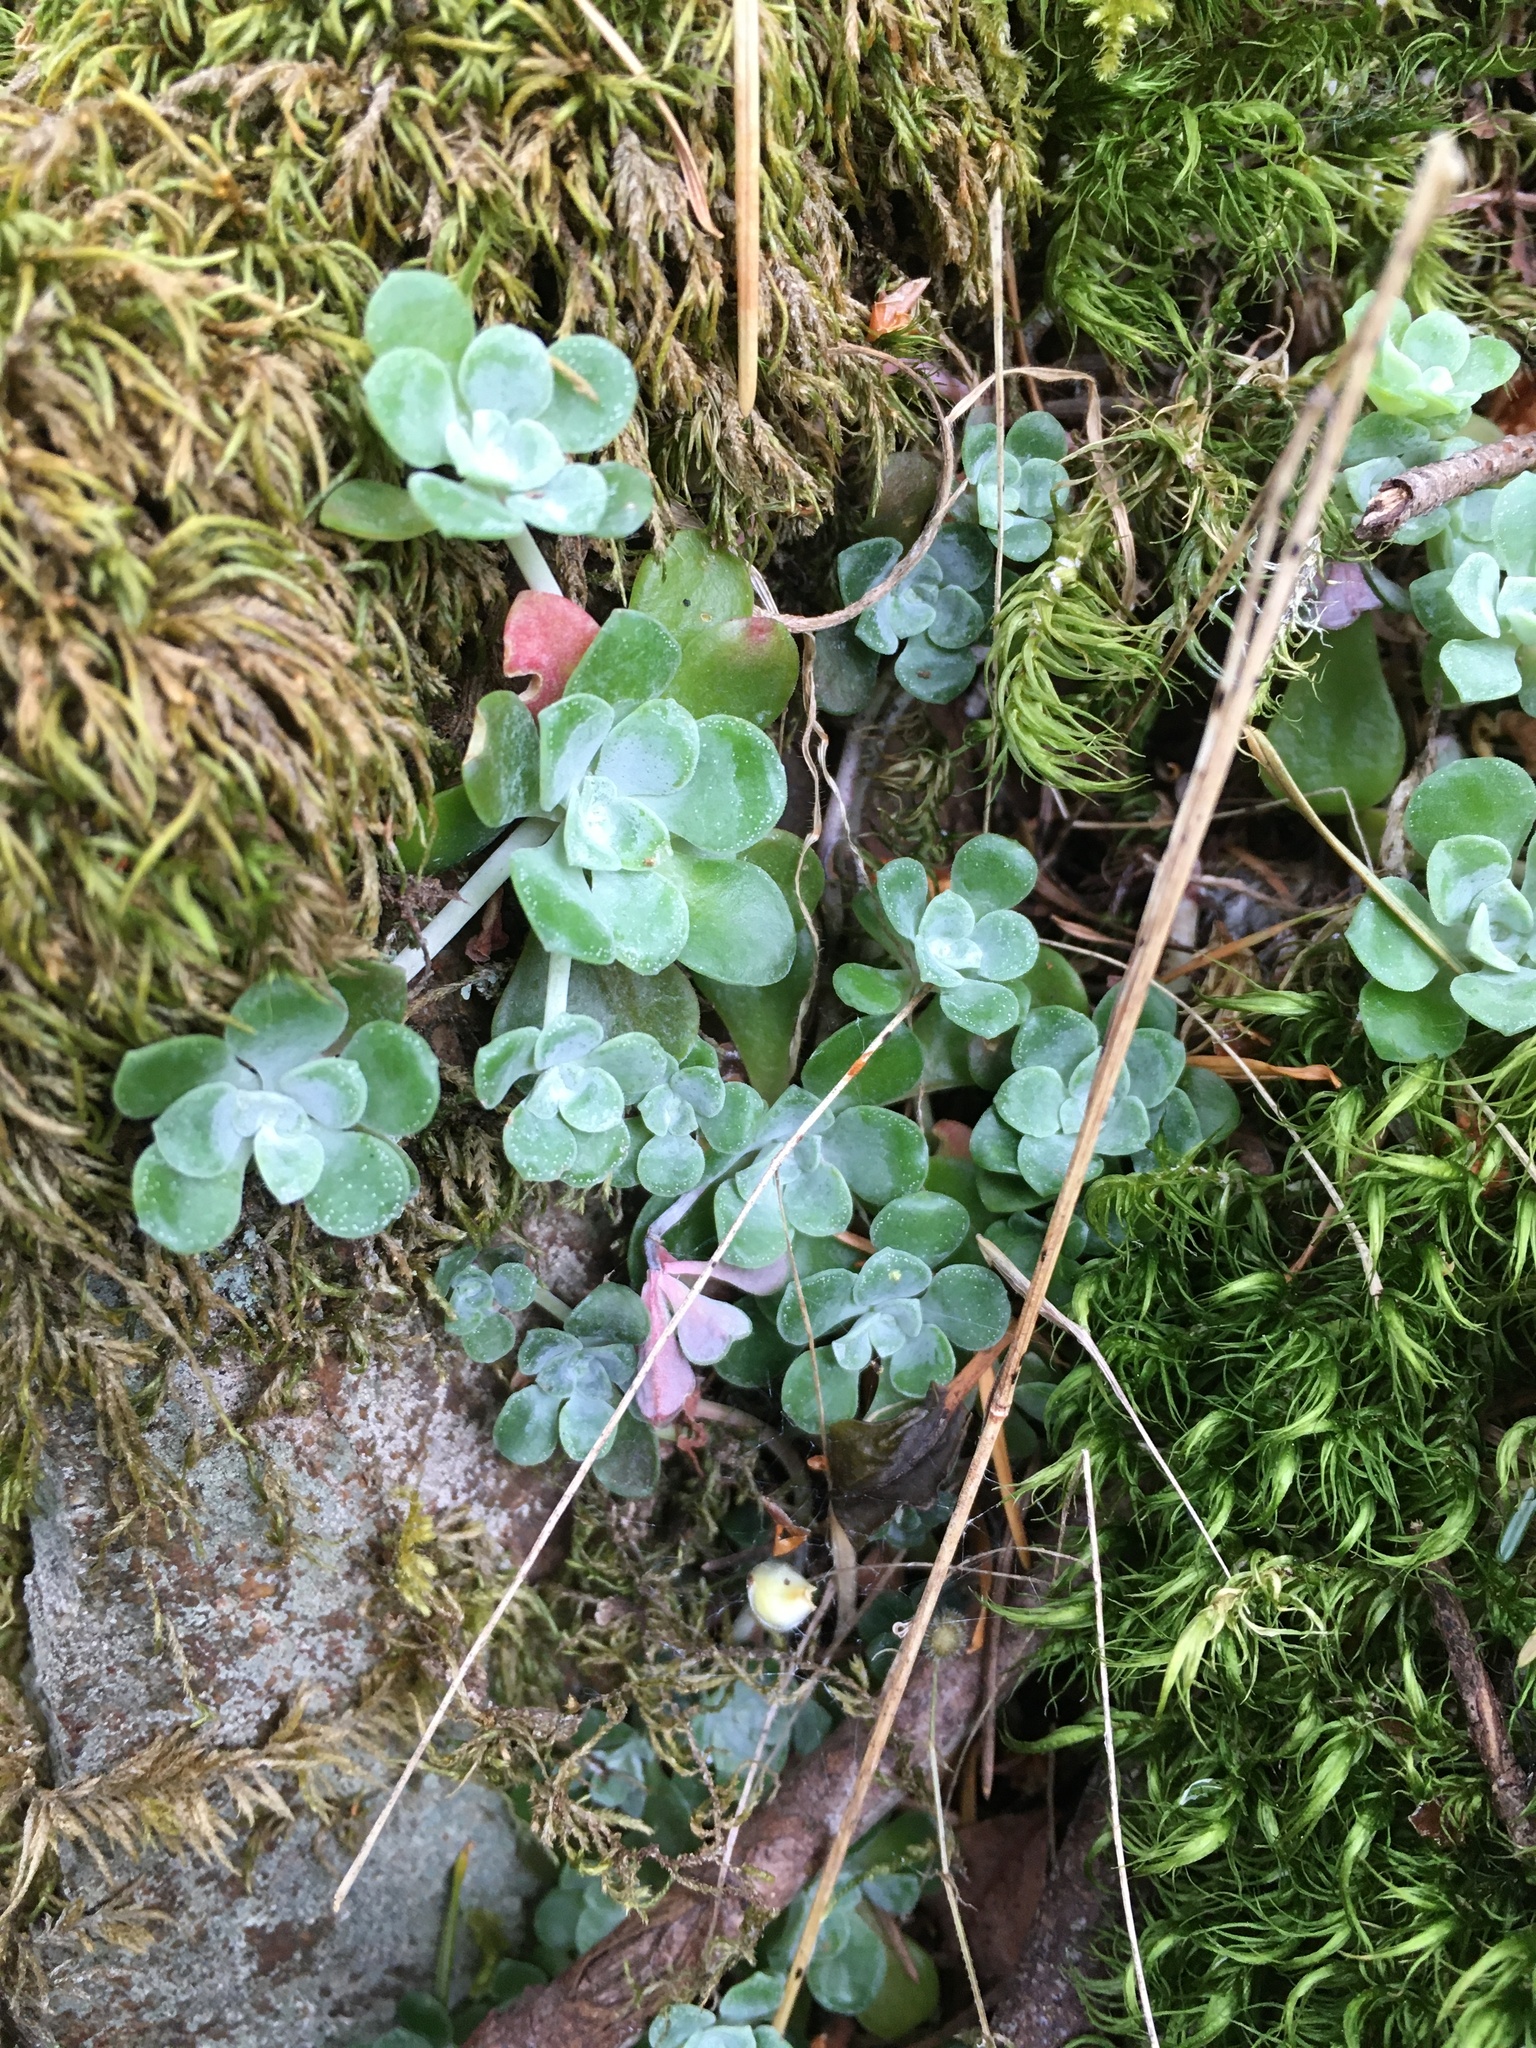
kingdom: Plantae
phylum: Tracheophyta
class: Magnoliopsida
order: Saxifragales
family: Crassulaceae
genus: Sedum
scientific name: Sedum spathulifolium
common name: Colorado stonecrop
